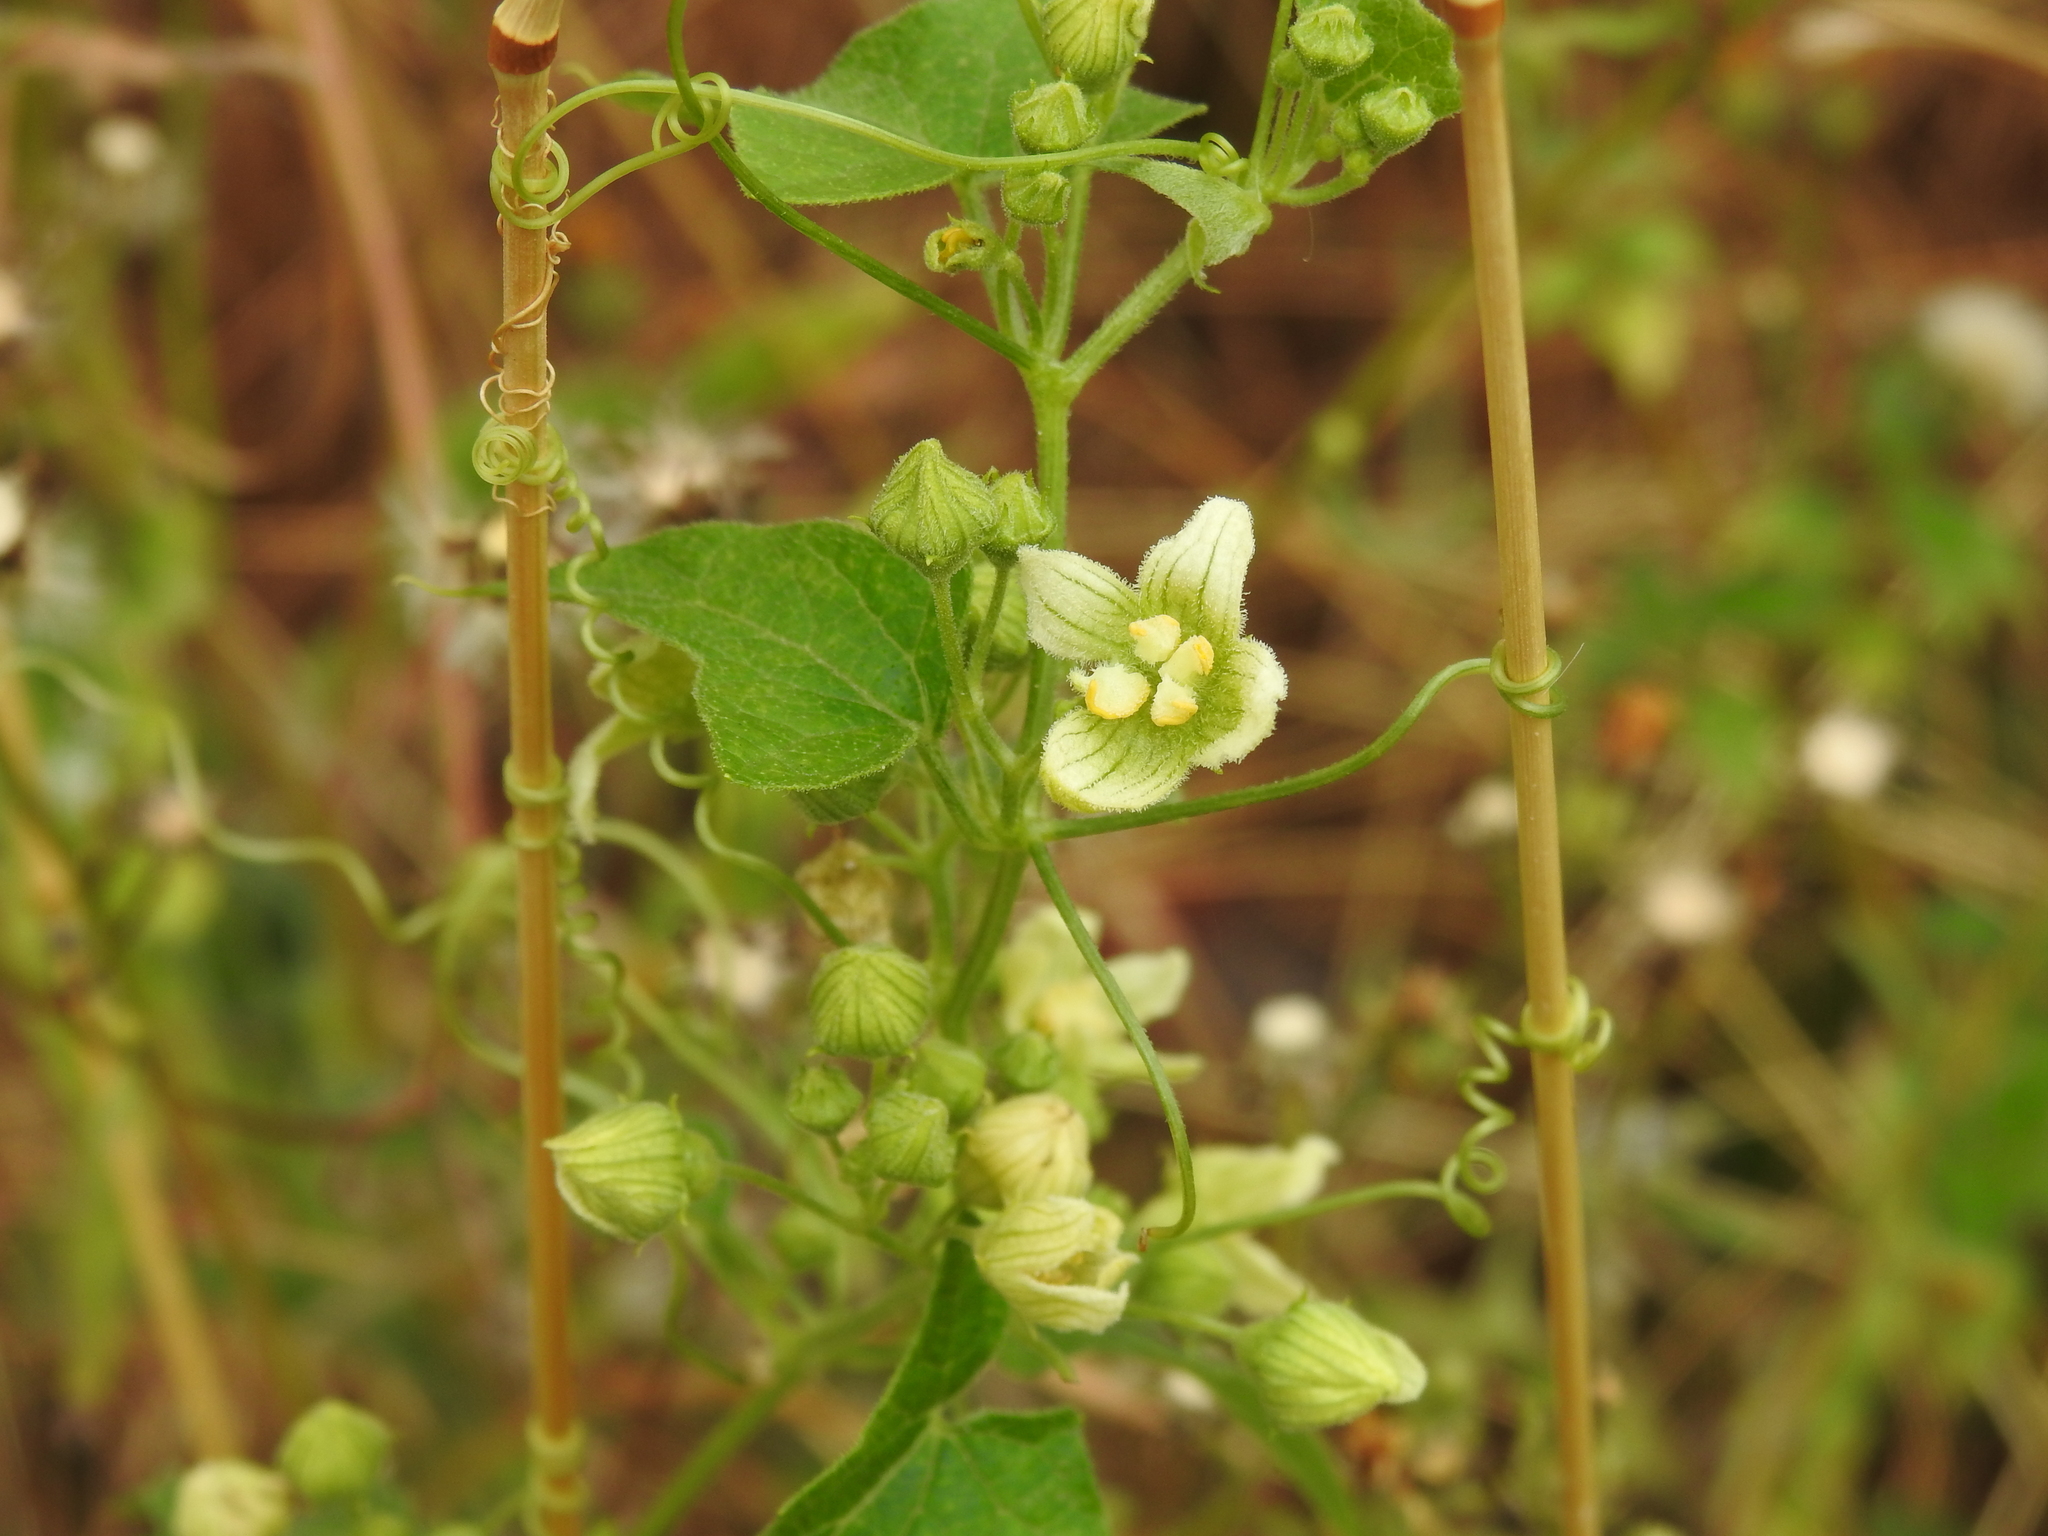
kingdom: Plantae
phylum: Tracheophyta
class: Magnoliopsida
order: Cucurbitales
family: Cucurbitaceae
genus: Bryonia
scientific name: Bryonia cretica
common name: Cretan bryony
